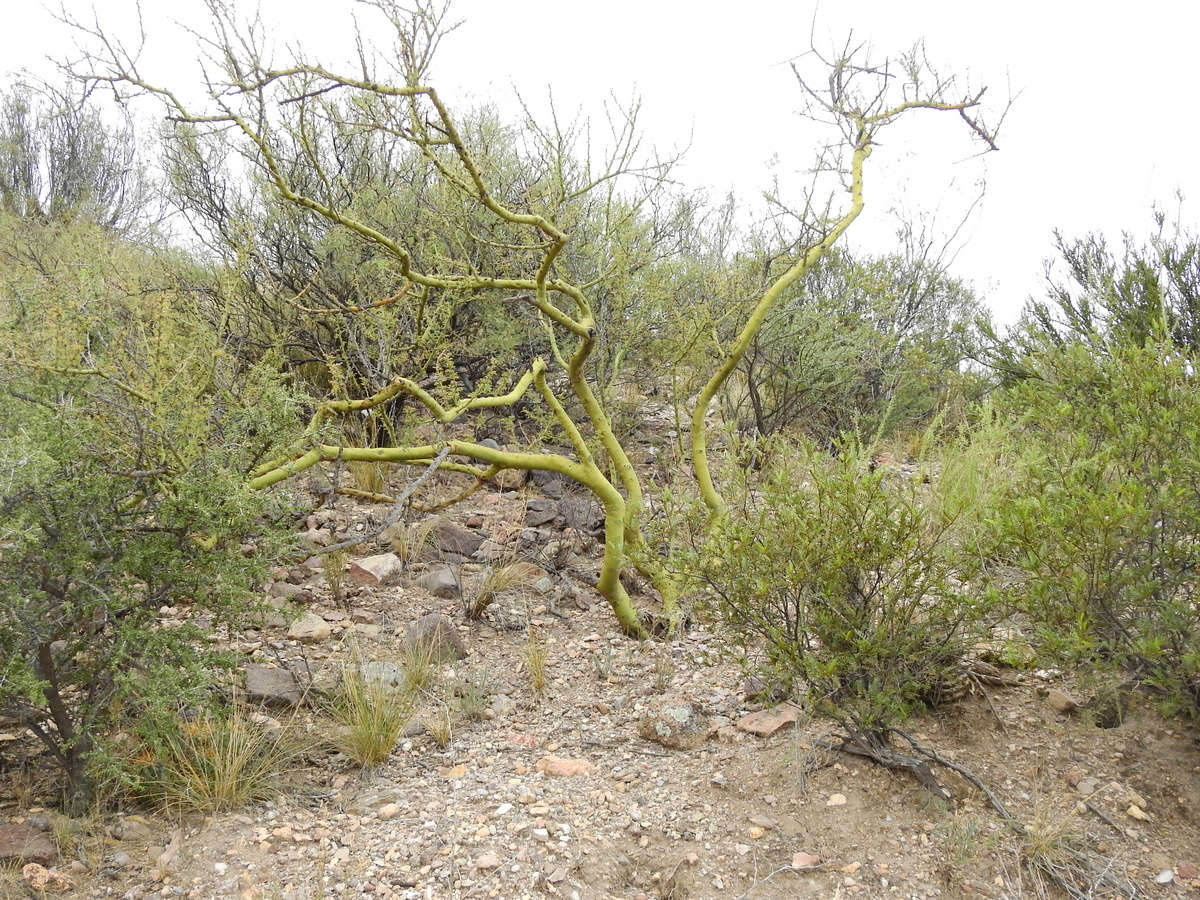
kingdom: Plantae
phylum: Tracheophyta
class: Magnoliopsida
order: Fabales
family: Fabaceae
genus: Parkinsonia
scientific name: Parkinsonia praecox
